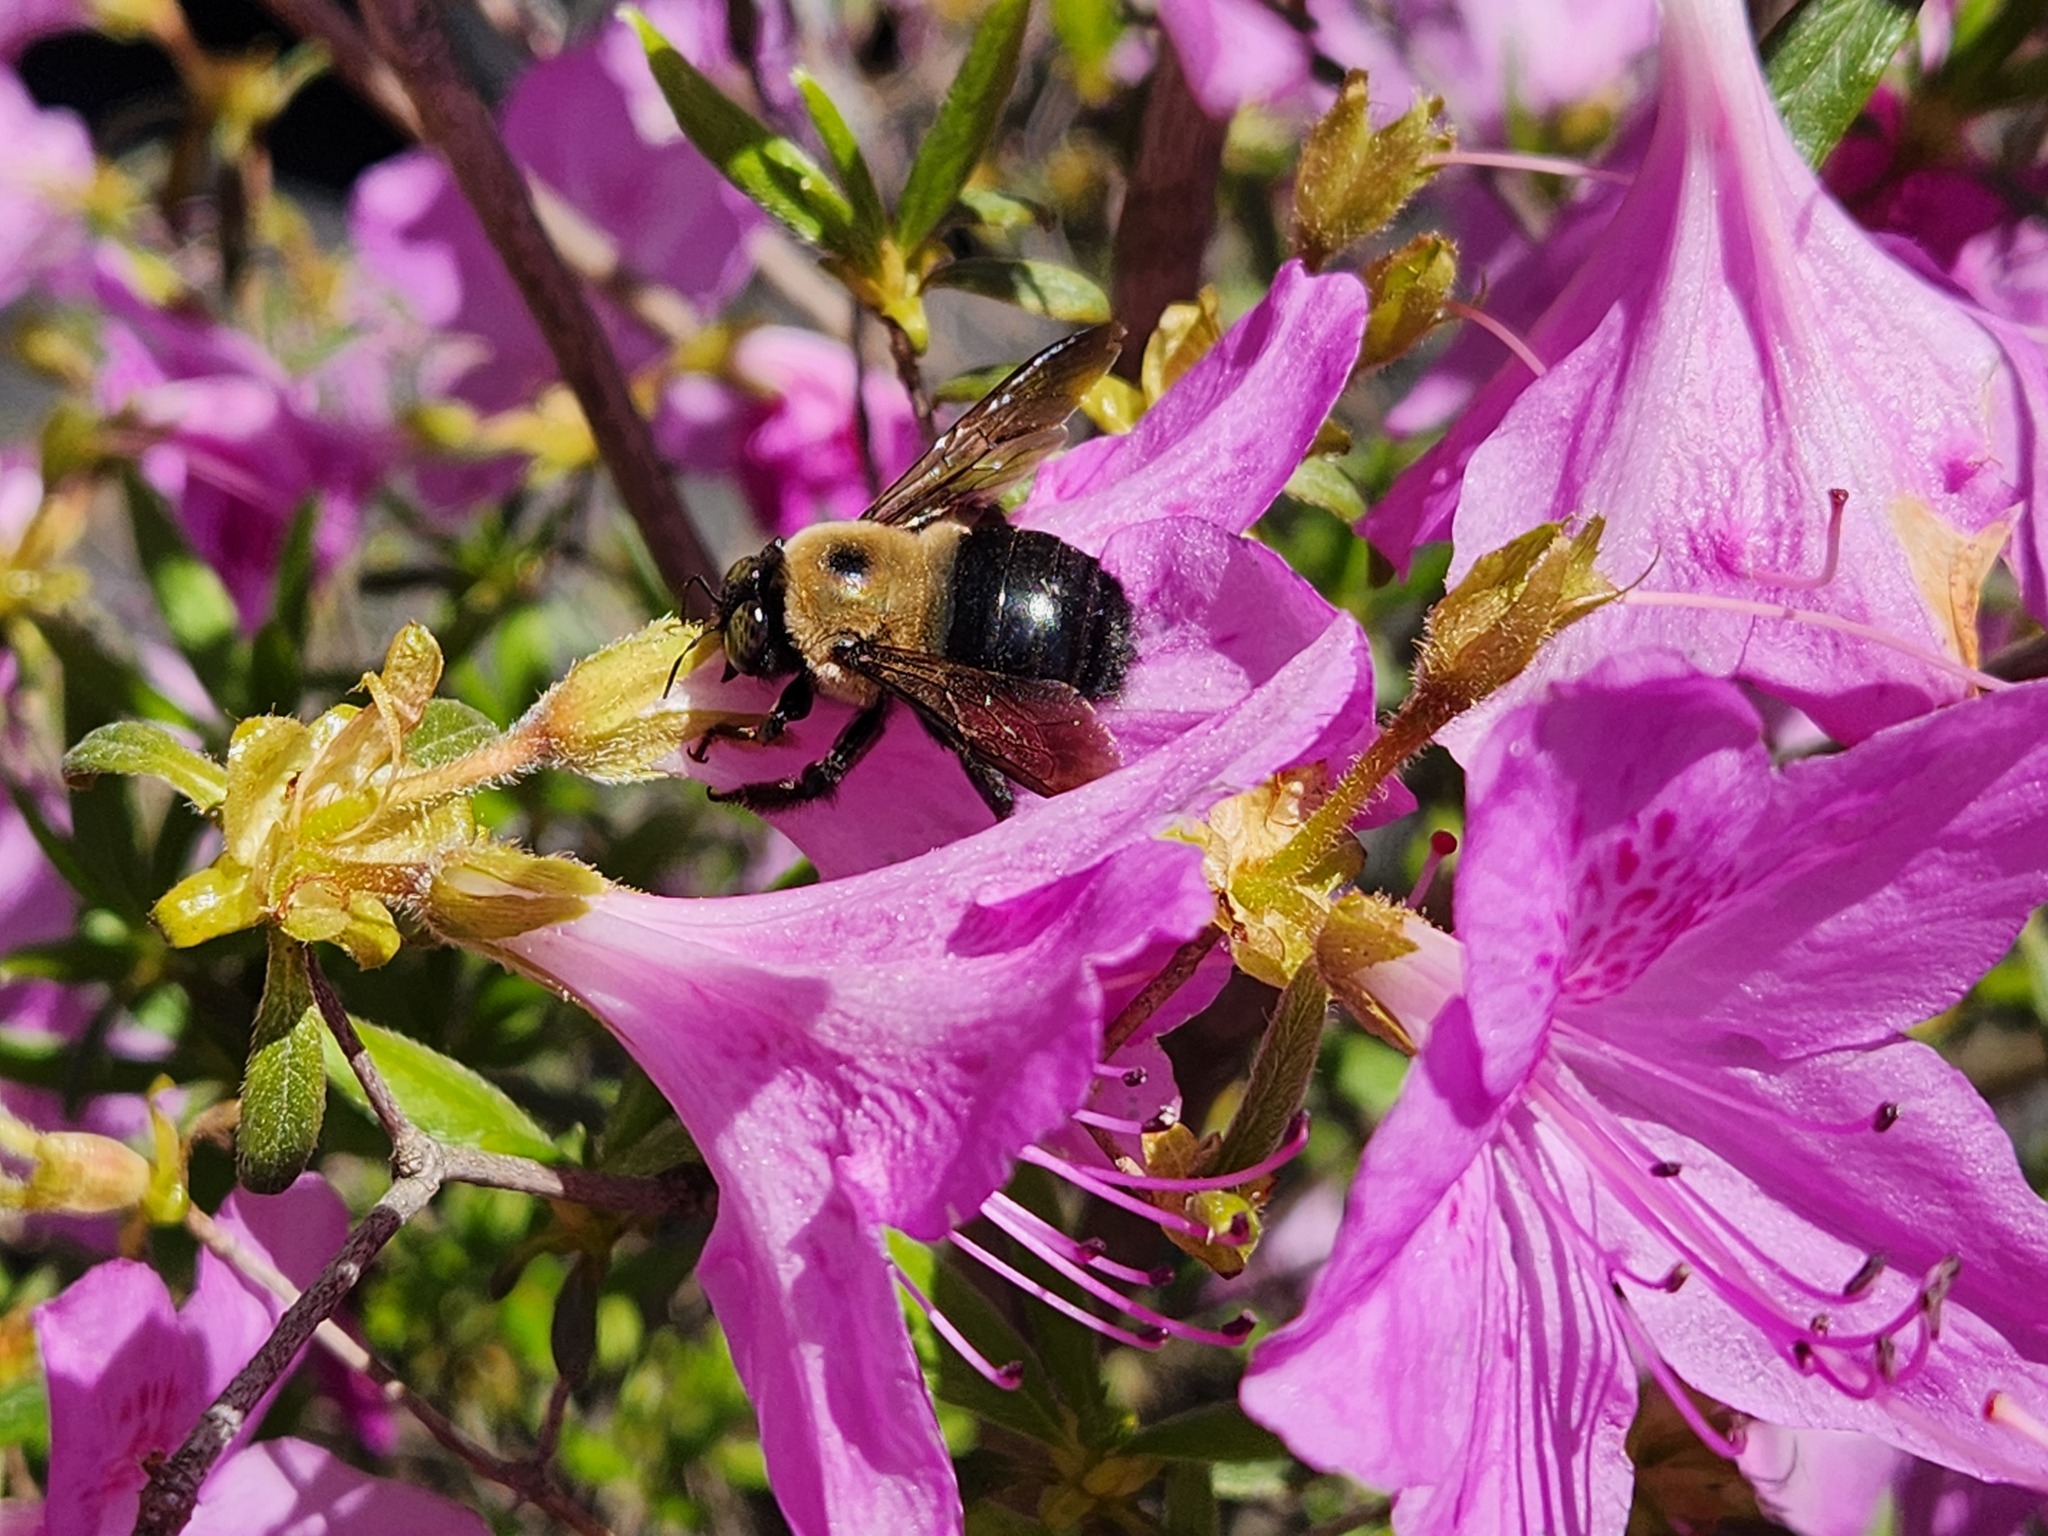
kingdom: Animalia
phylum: Arthropoda
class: Insecta
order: Hymenoptera
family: Apidae
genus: Xylocopa
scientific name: Xylocopa virginica
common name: Carpenter bee
